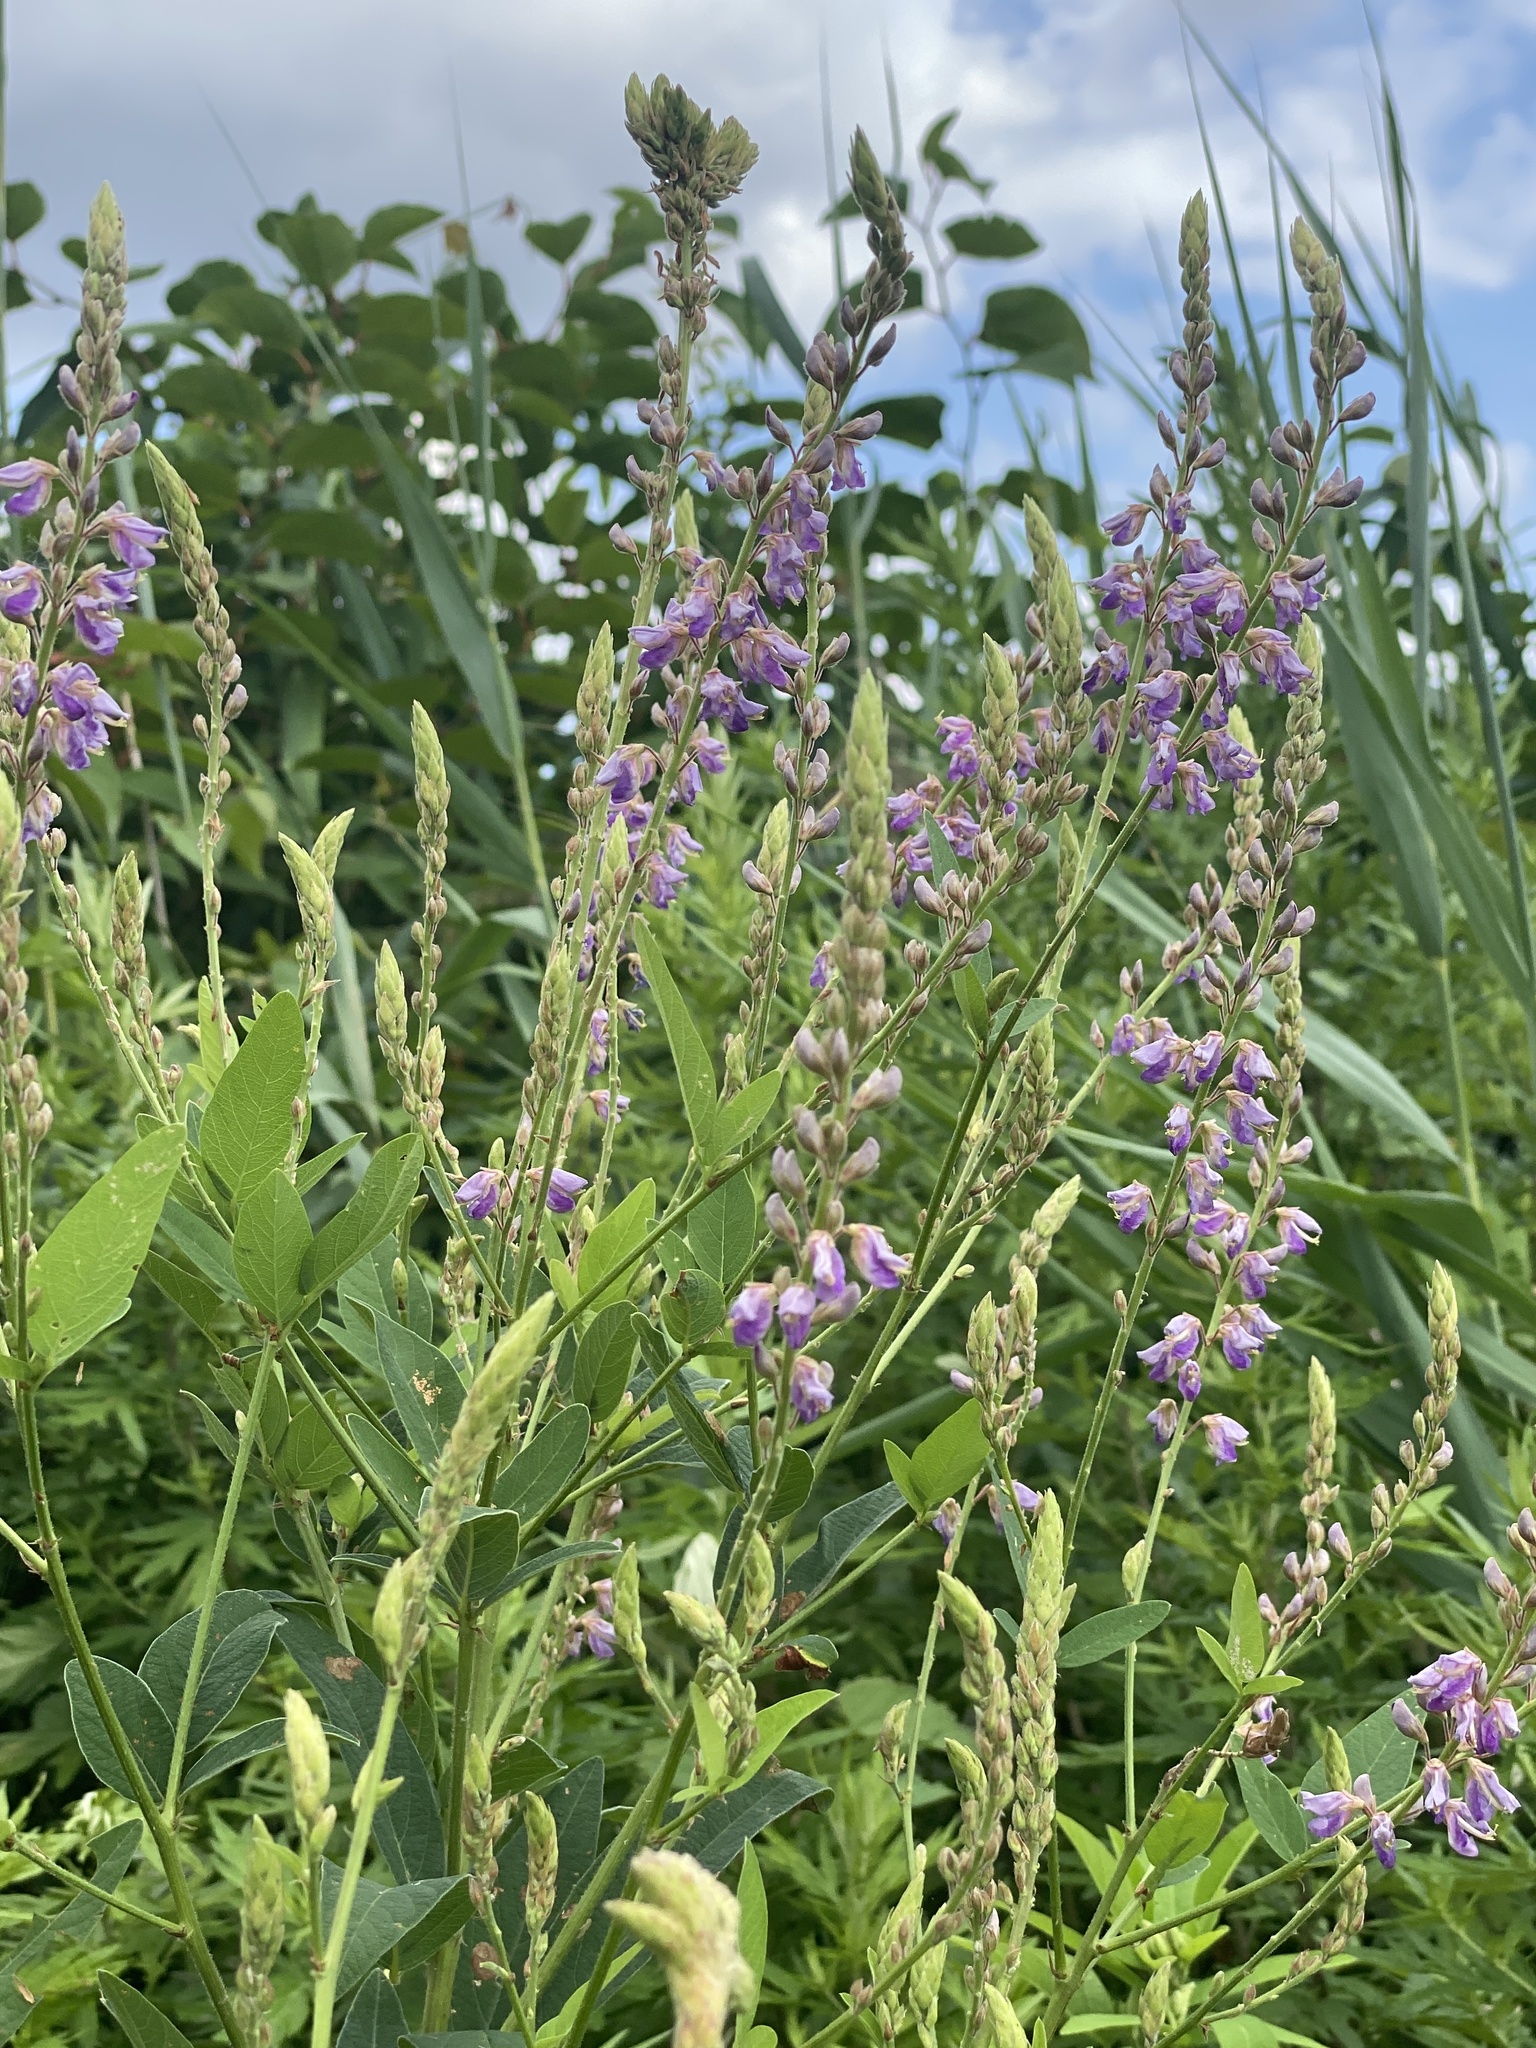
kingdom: Plantae
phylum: Tracheophyta
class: Magnoliopsida
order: Fabales
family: Fabaceae
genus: Desmodium
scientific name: Desmodium canadense
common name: Canada tick-trefoil
